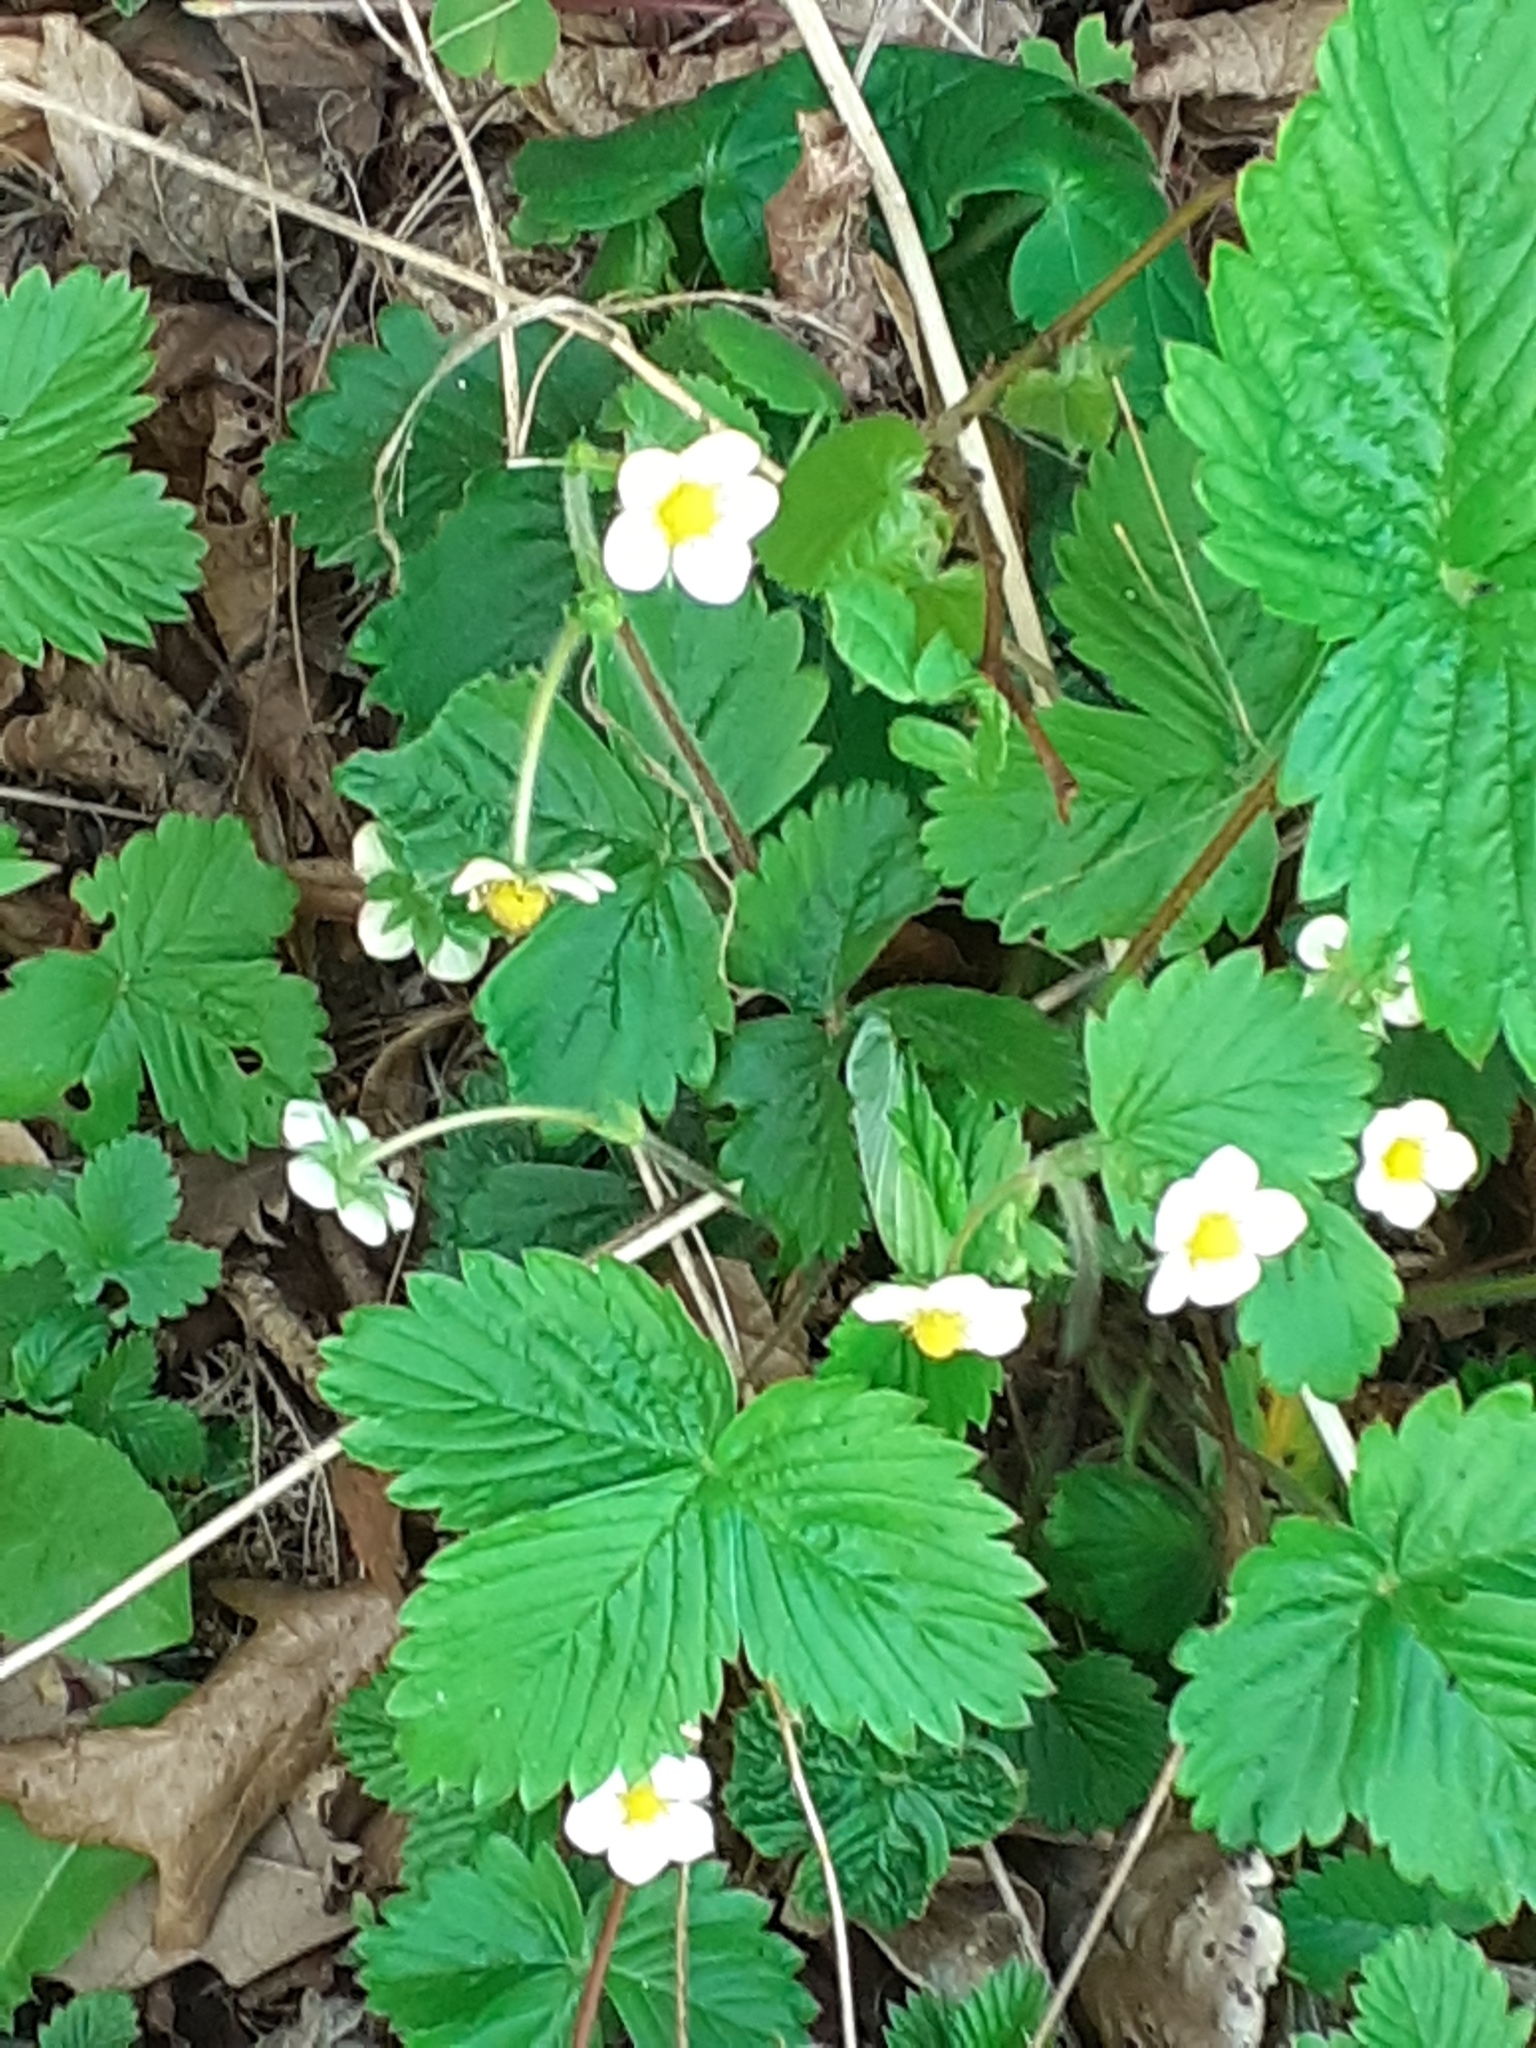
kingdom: Plantae
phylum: Tracheophyta
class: Magnoliopsida
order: Rosales
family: Rosaceae
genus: Fragaria
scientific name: Fragaria vesca
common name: Wild strawberry
